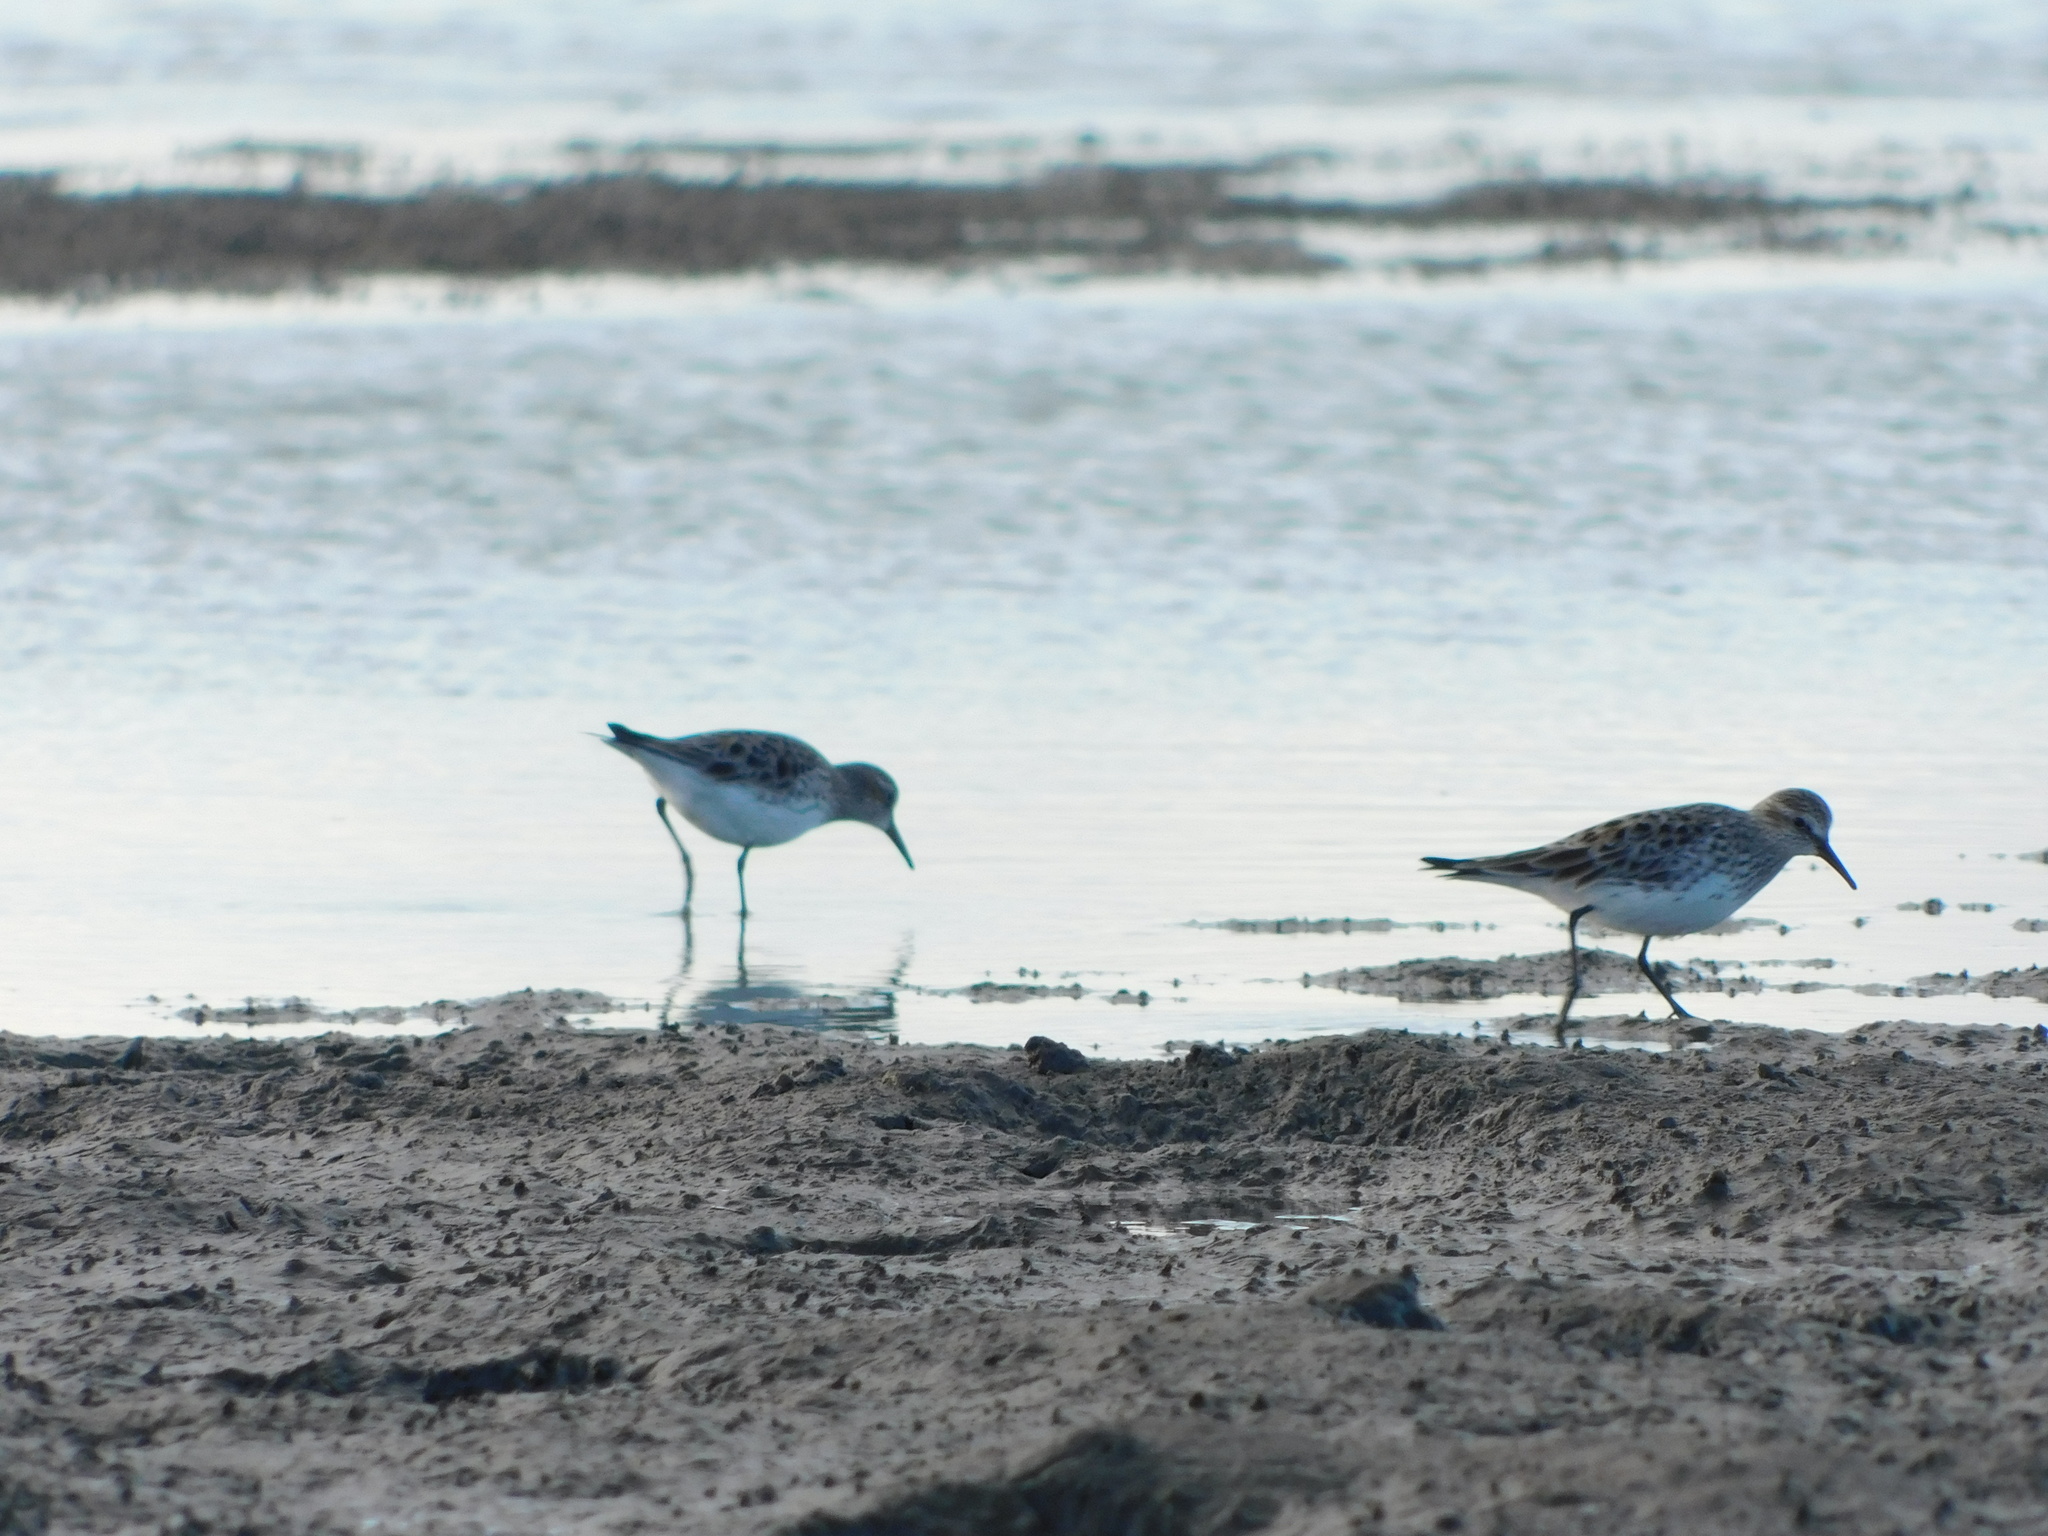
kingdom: Animalia
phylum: Chordata
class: Aves
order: Charadriiformes
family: Scolopacidae
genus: Calidris
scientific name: Calidris fuscicollis
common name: White-rumped sandpiper
